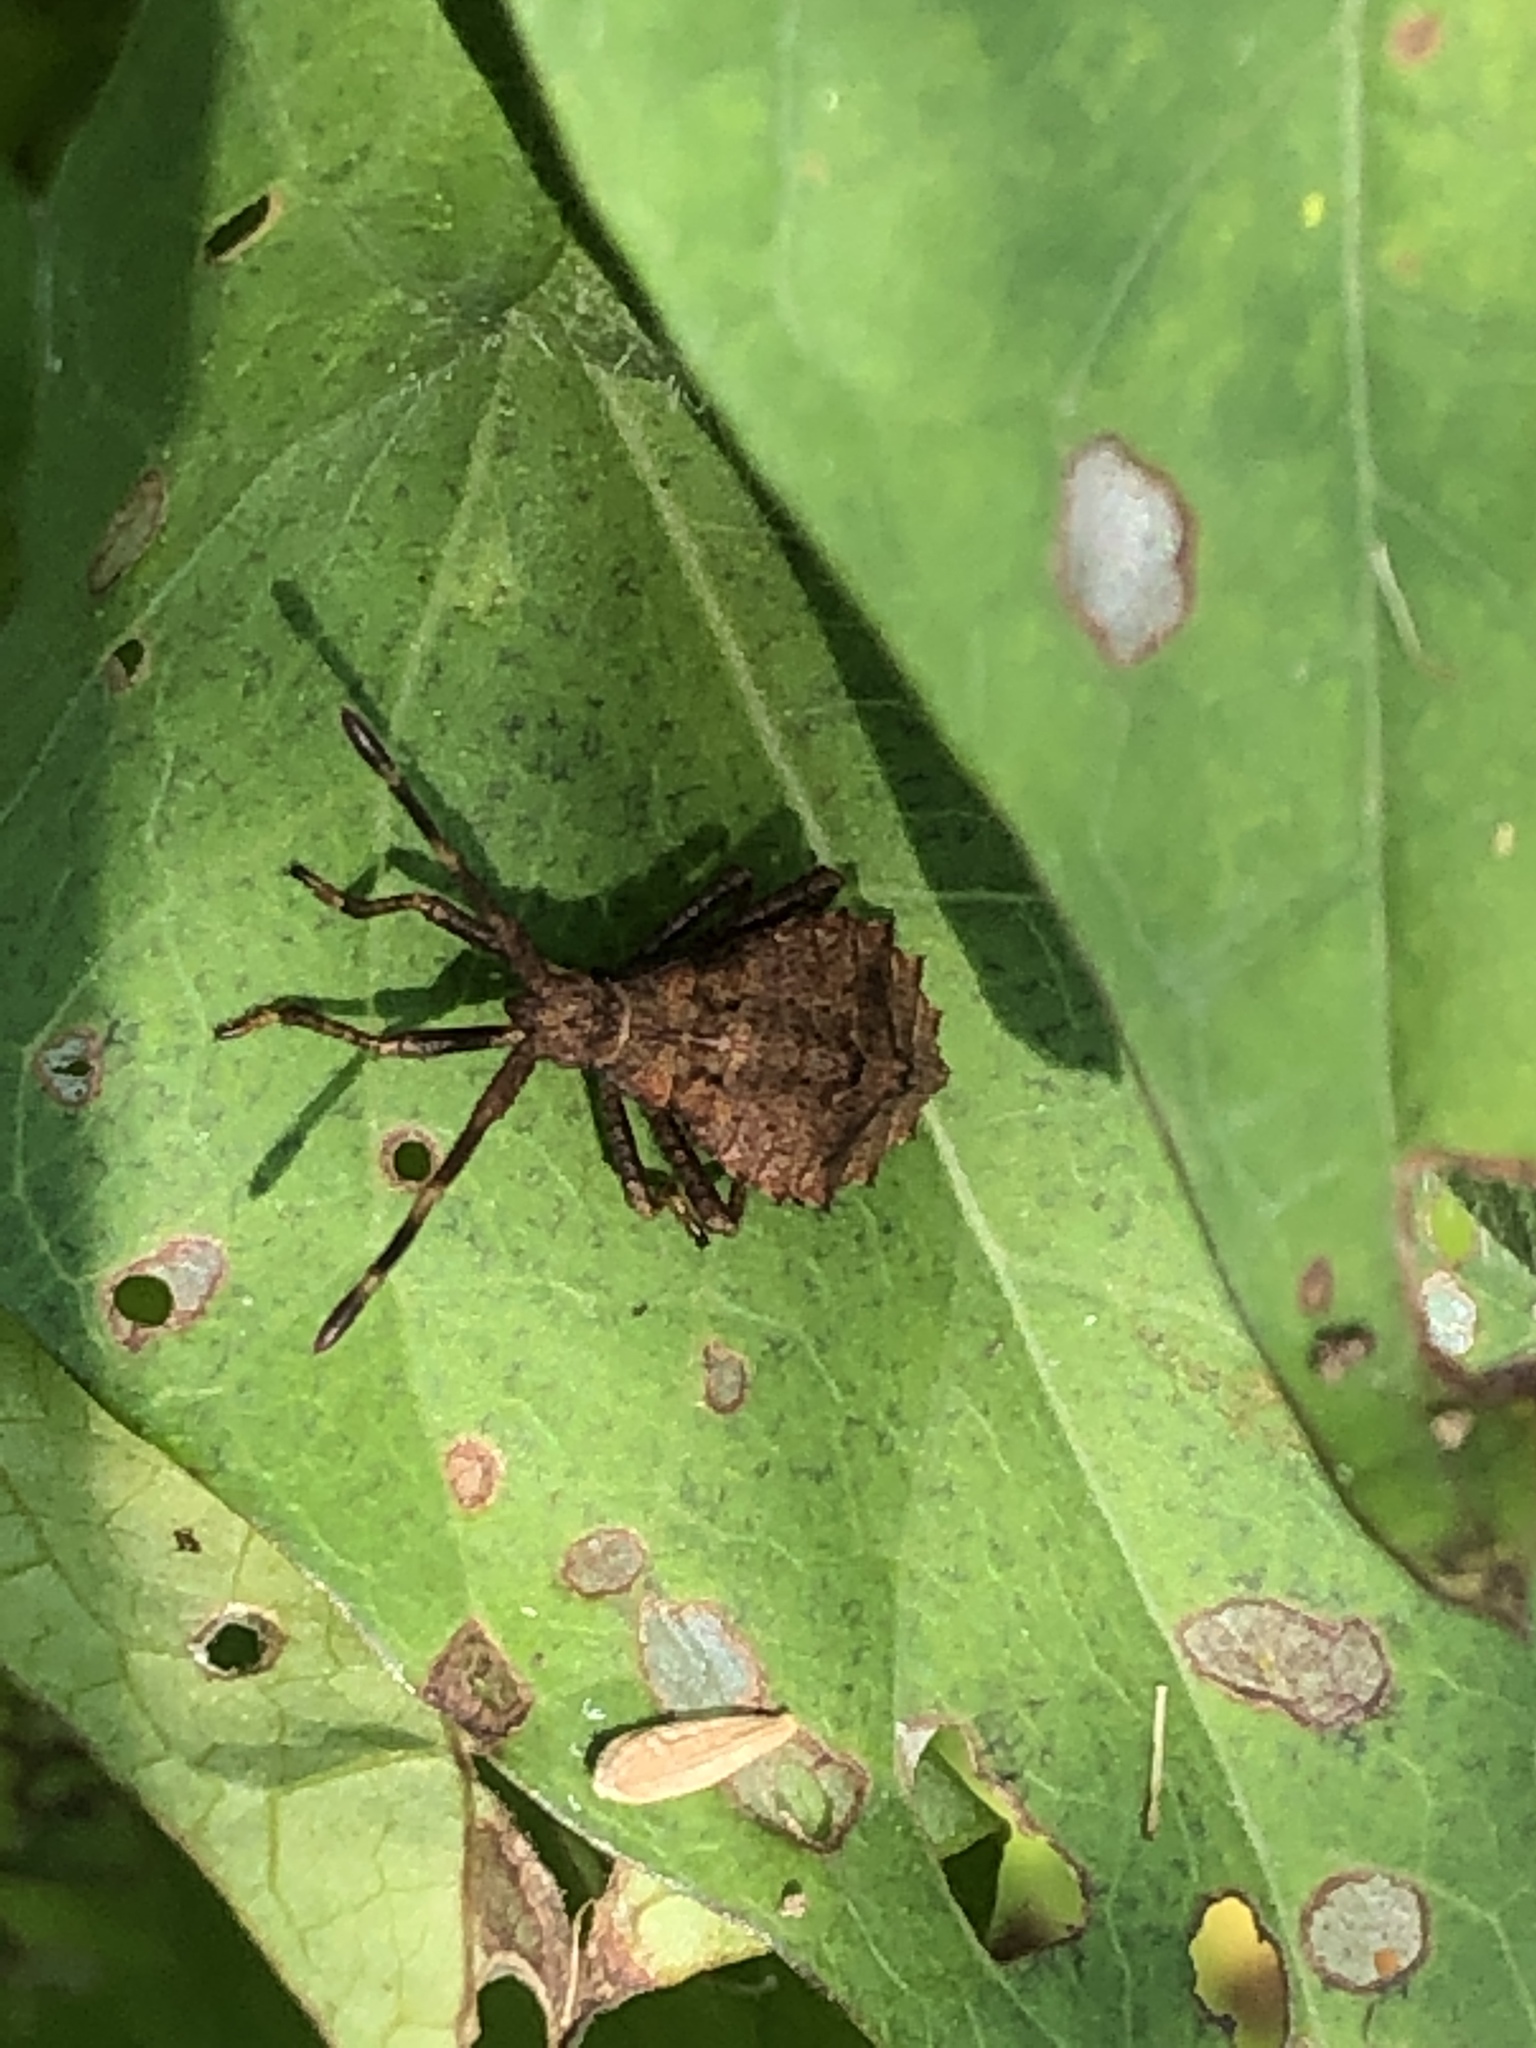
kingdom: Animalia
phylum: Arthropoda
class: Insecta
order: Hemiptera
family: Coreidae
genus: Coreus
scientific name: Coreus marginatus
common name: Dock bug
